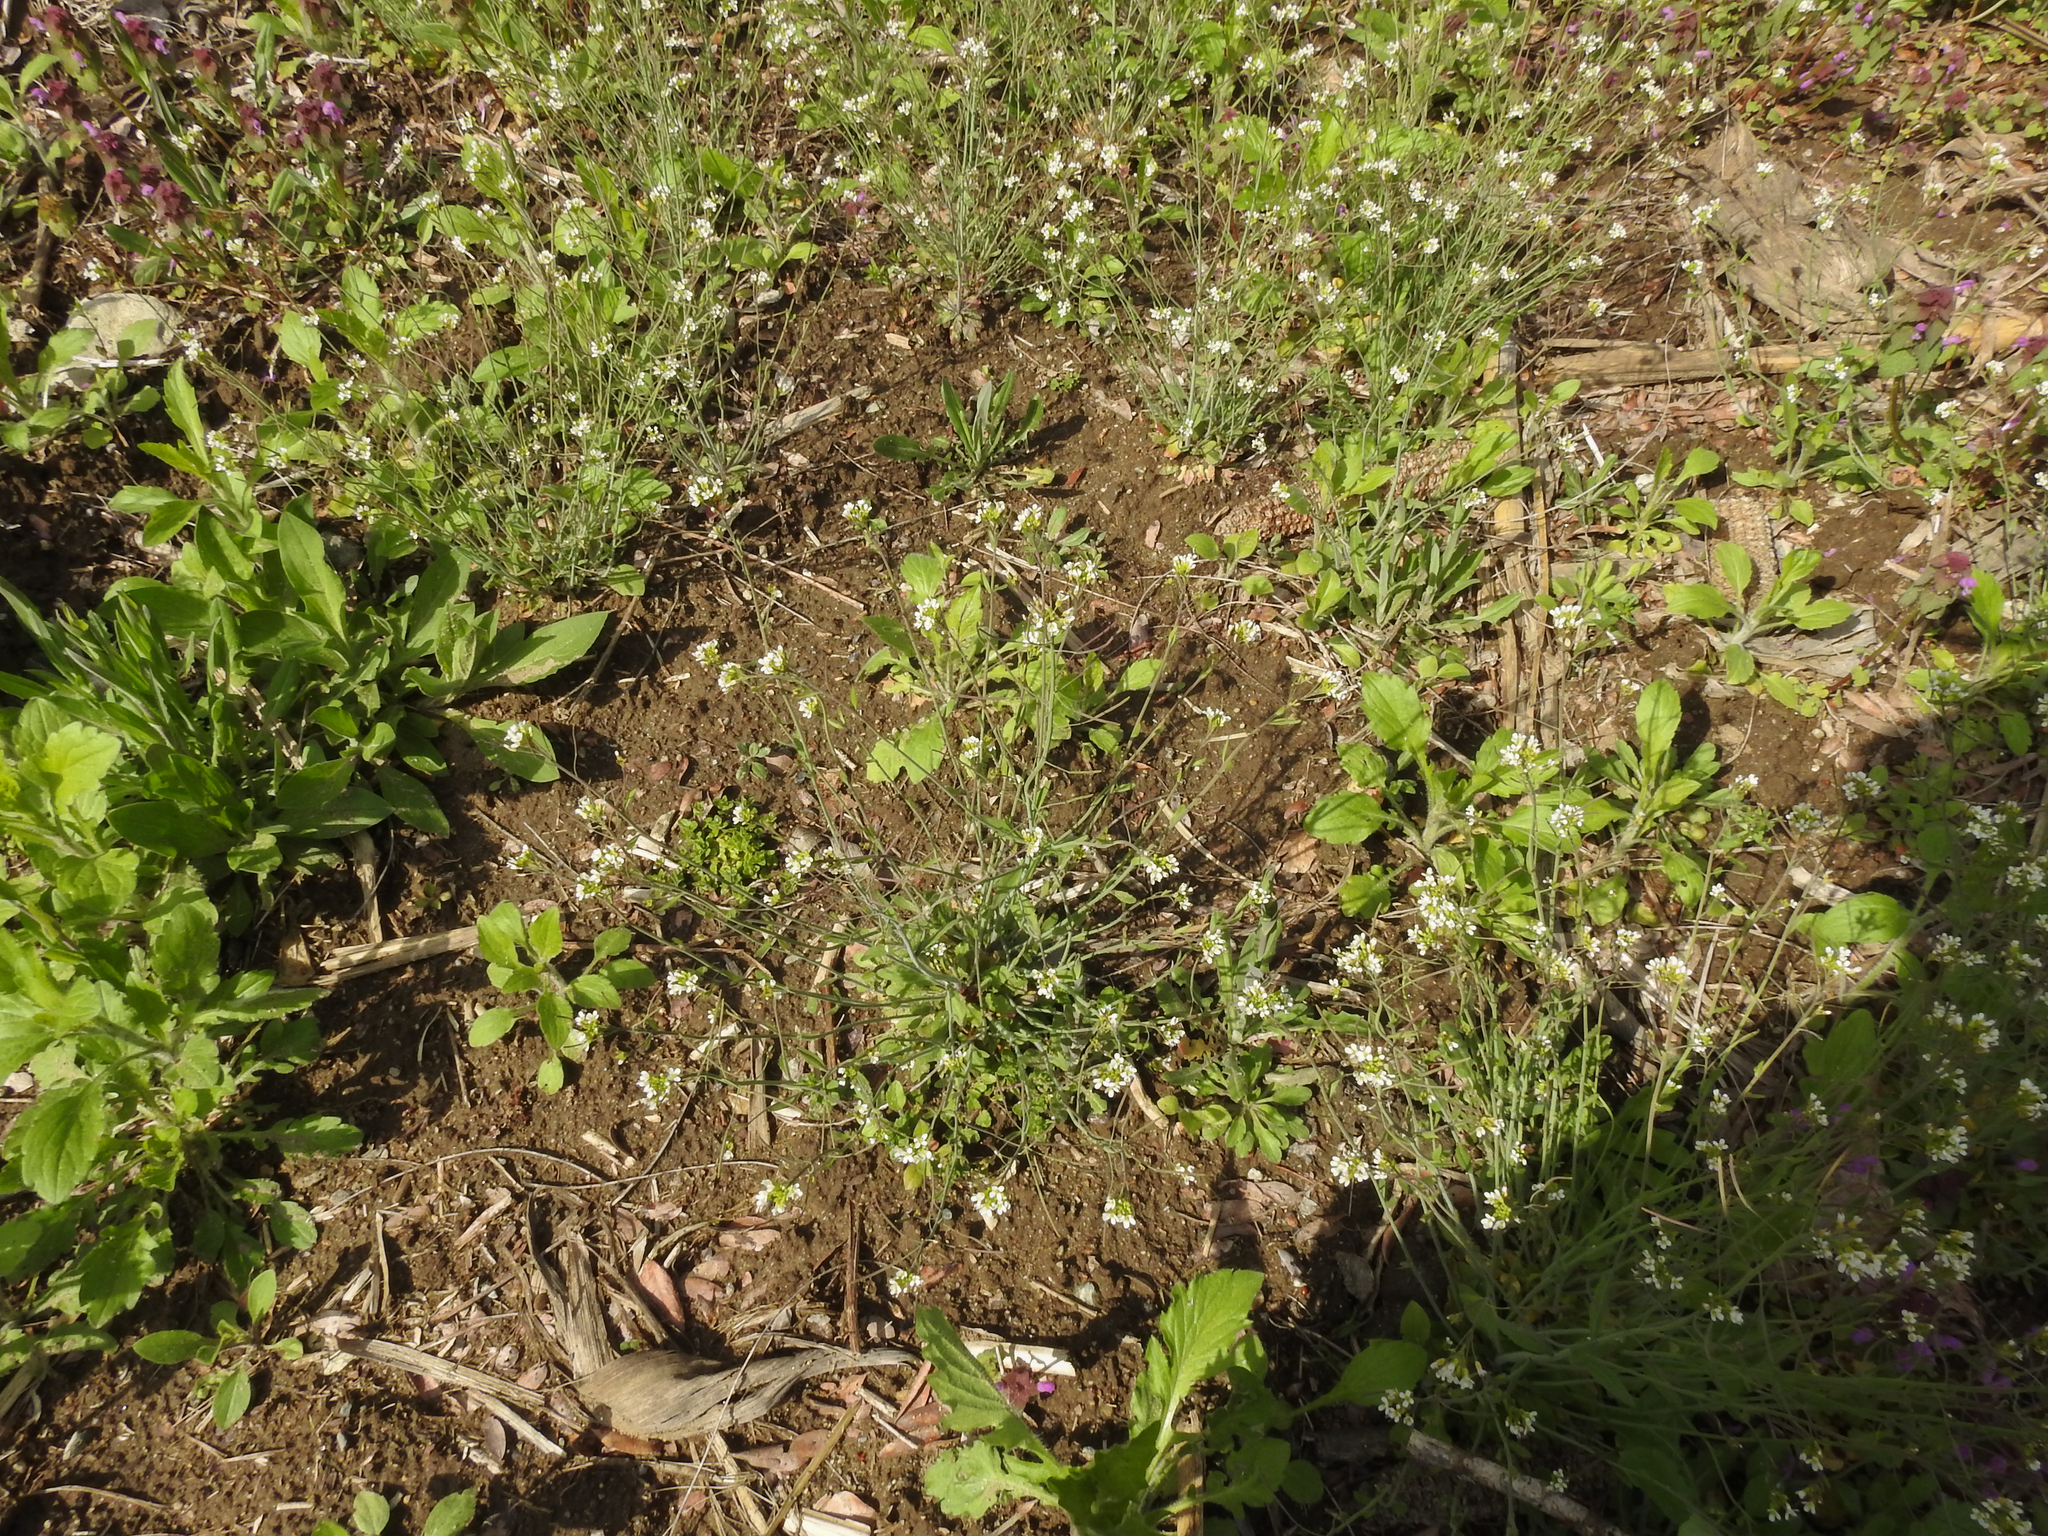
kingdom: Plantae
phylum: Tracheophyta
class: Magnoliopsida
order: Brassicales
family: Brassicaceae
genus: Arabidopsis
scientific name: Arabidopsis thaliana
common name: Thale cress
